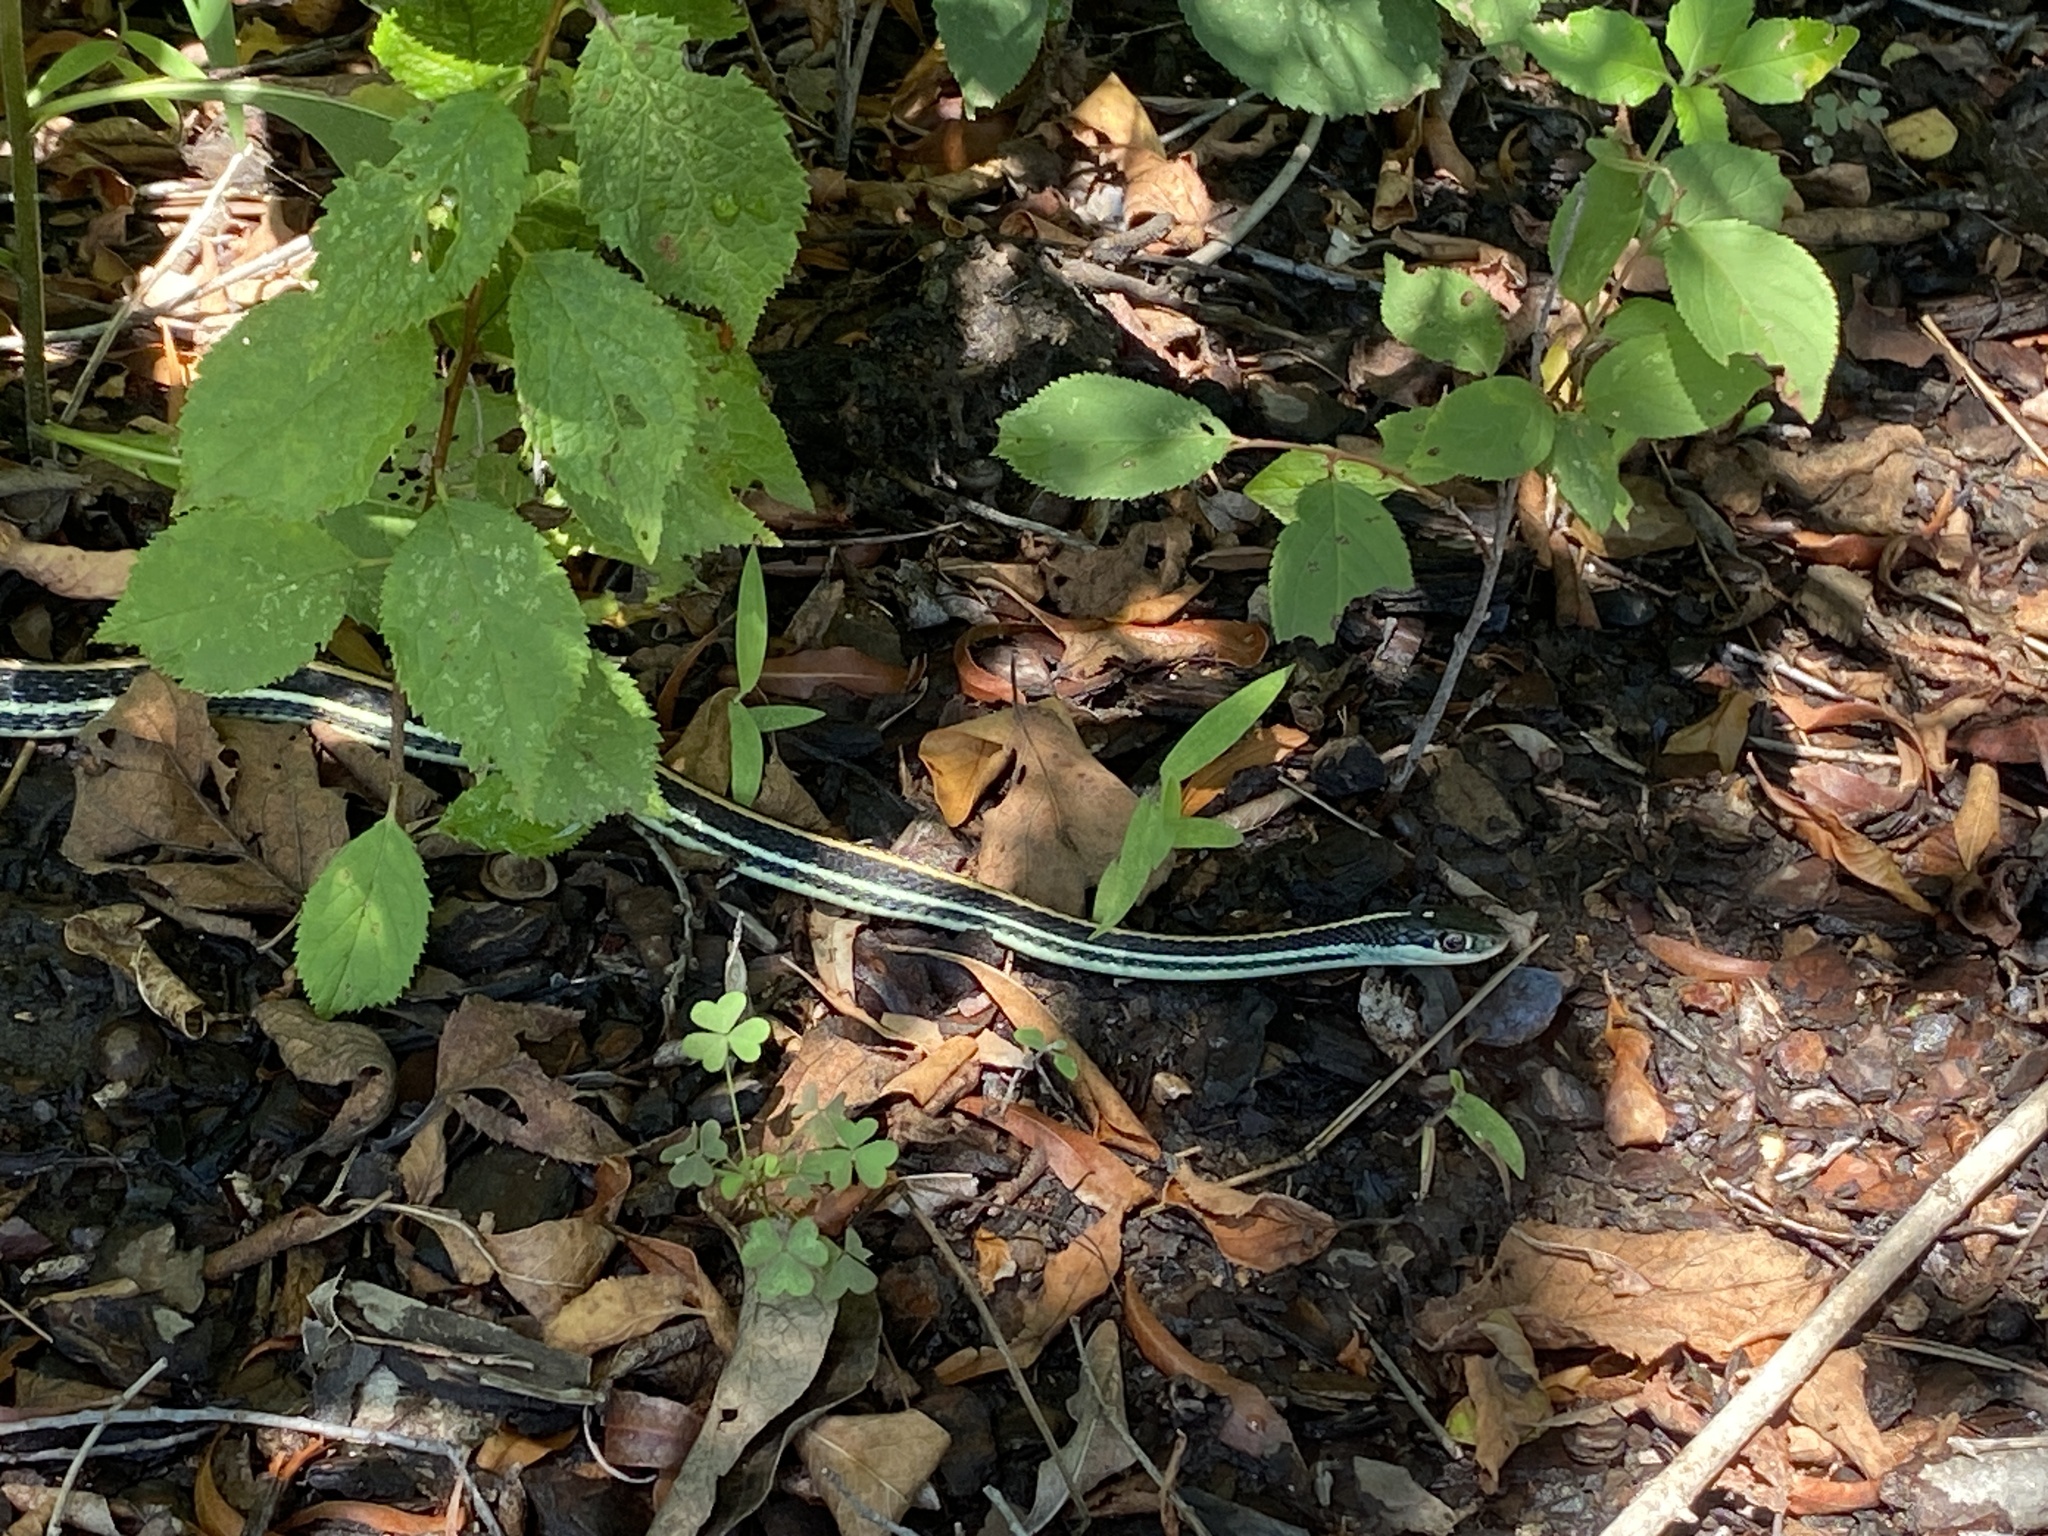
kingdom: Animalia
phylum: Chordata
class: Squamata
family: Colubridae
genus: Thamnophis
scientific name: Thamnophis proximus
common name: Western ribbon snake
